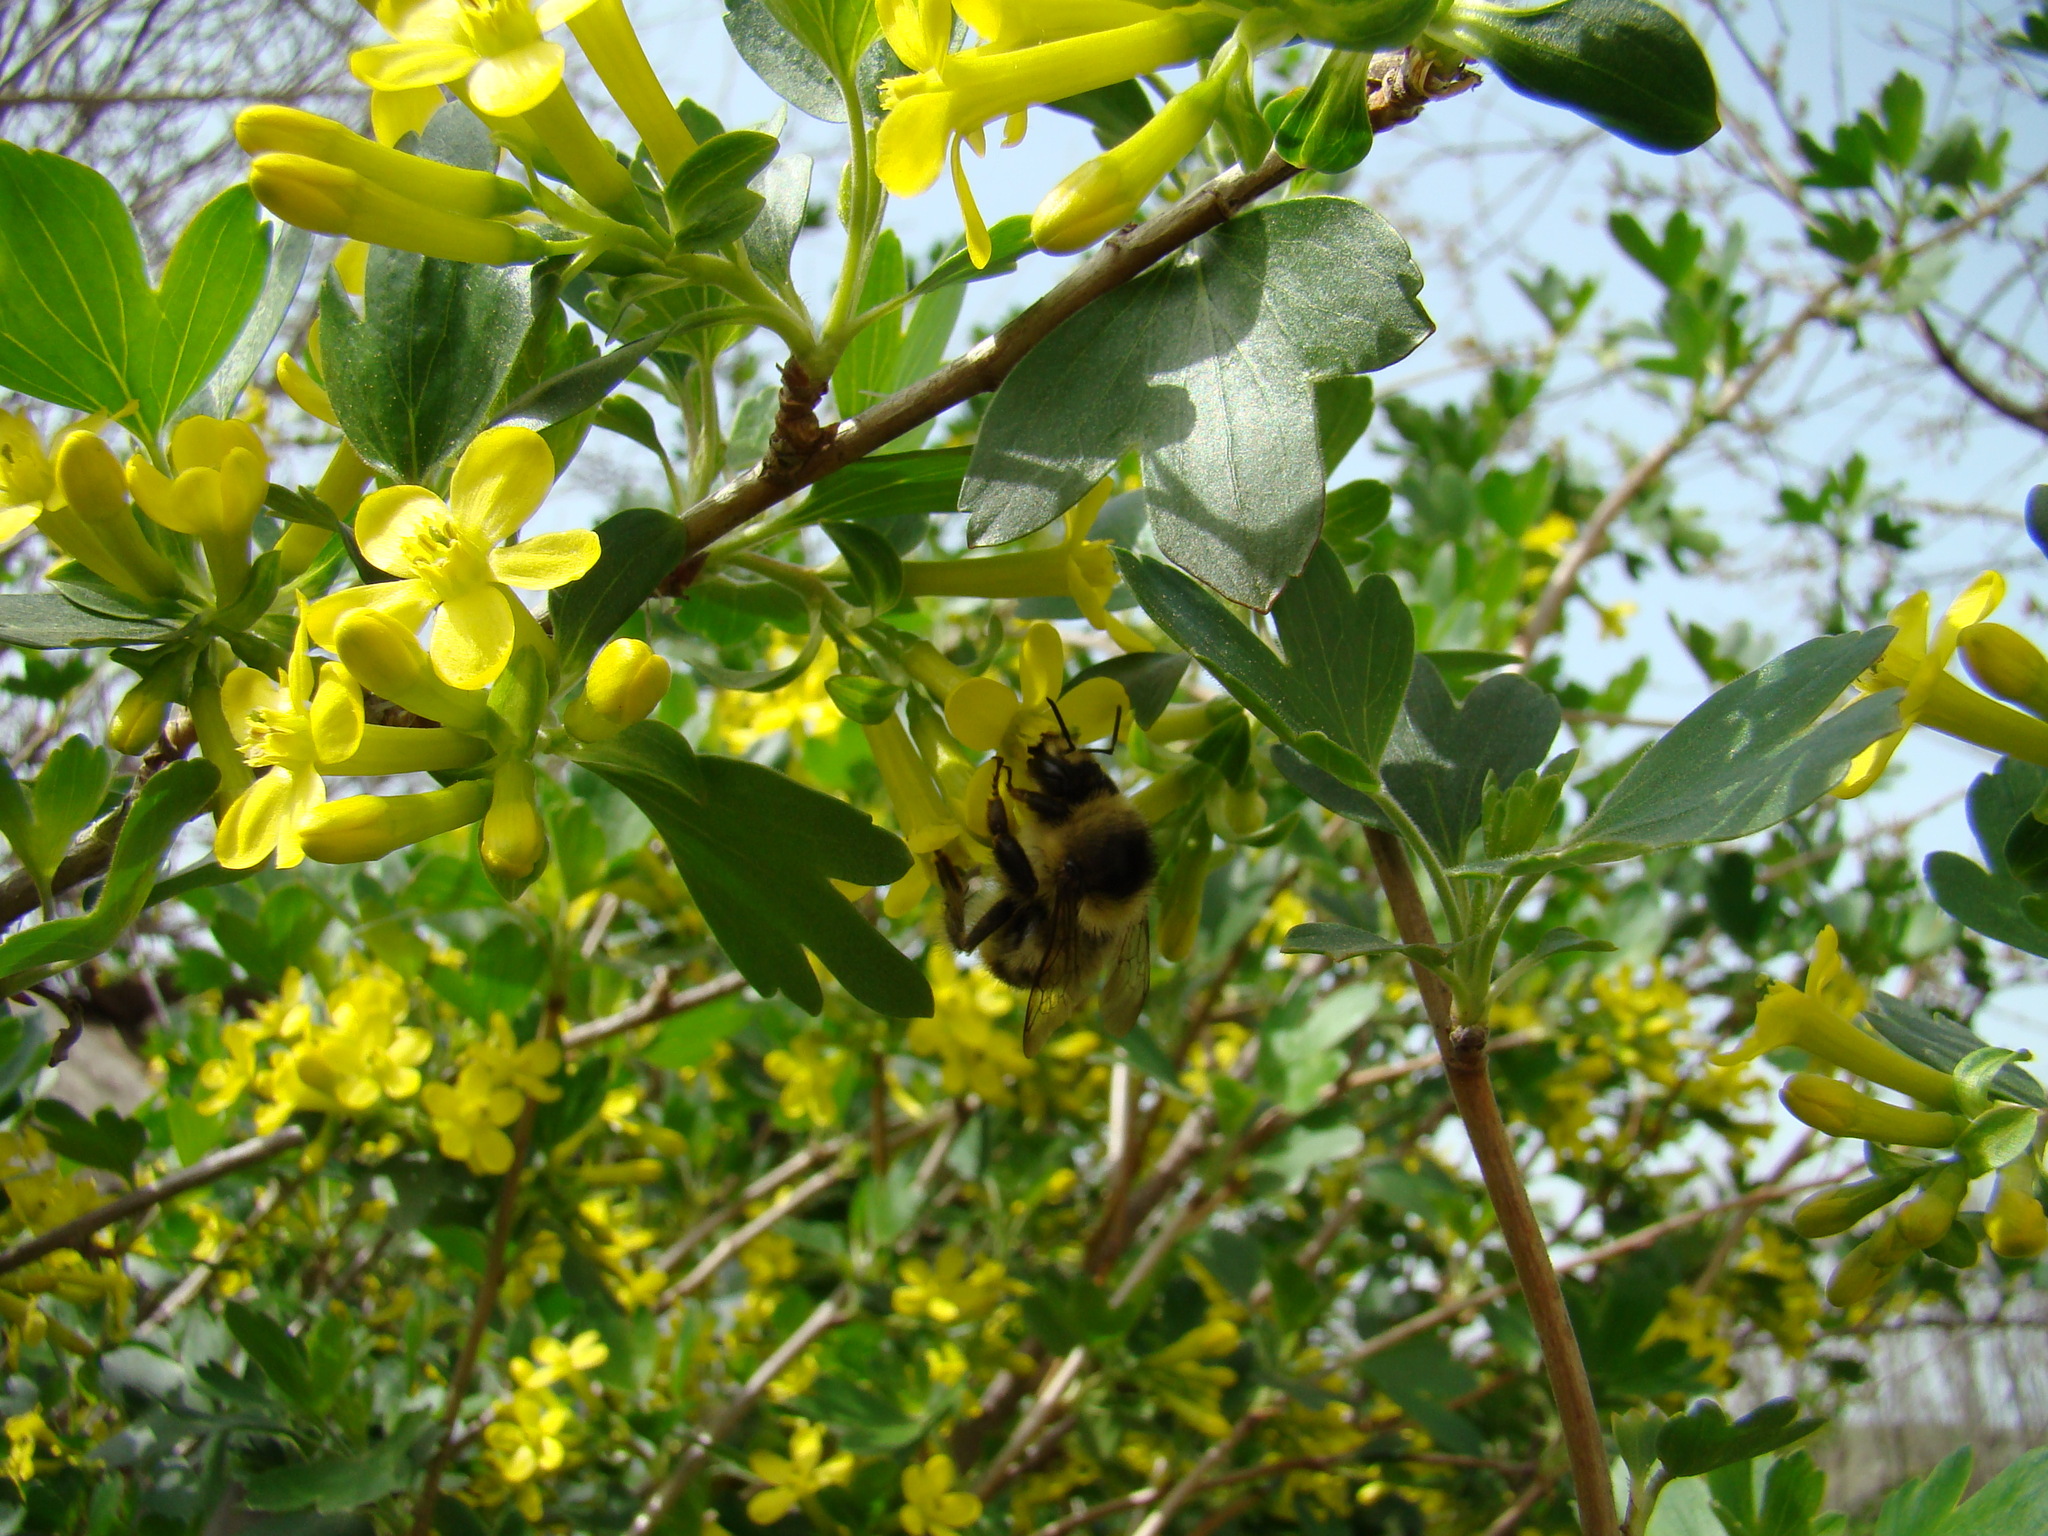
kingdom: Animalia
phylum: Arthropoda
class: Insecta
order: Hymenoptera
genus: Thoracobombus
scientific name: Thoracobombus
